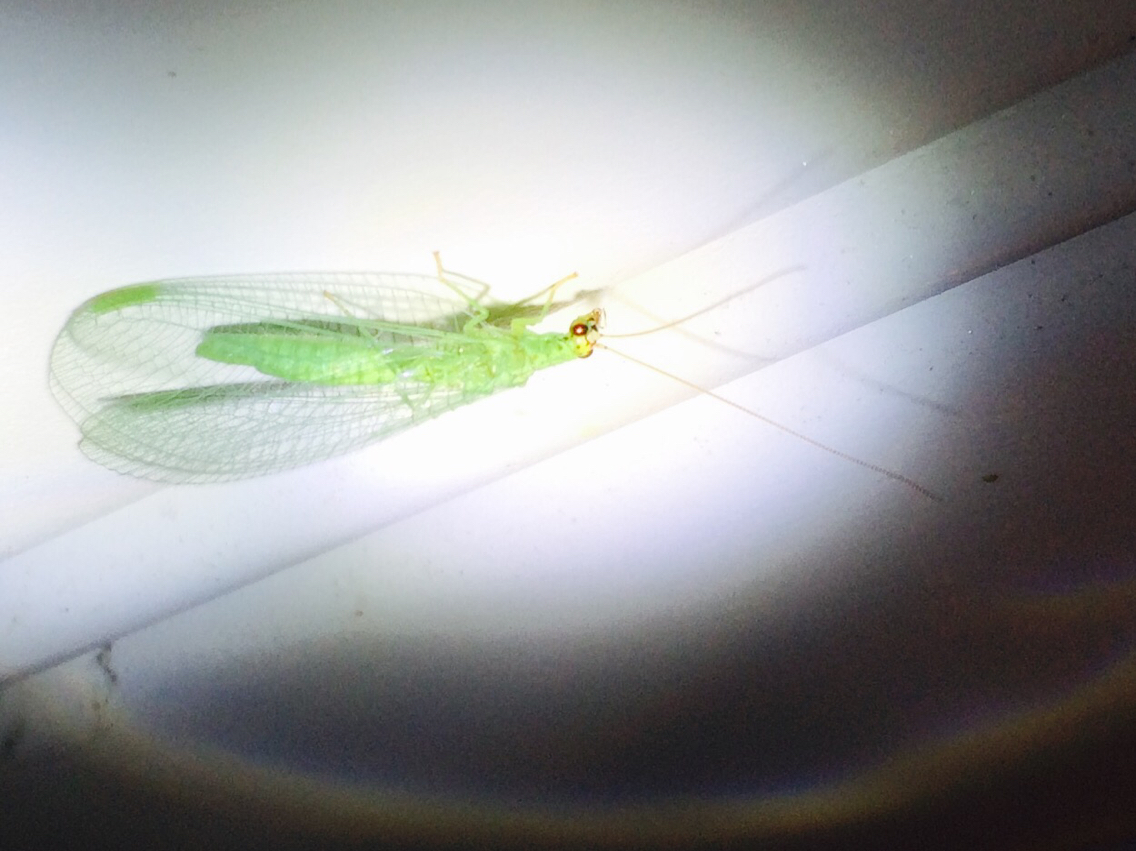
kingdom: Animalia
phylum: Arthropoda
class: Insecta
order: Neuroptera
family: Chrysopidae
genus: Chrysopa
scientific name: Chrysopa oculata
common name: Golden-eyed lacewing
